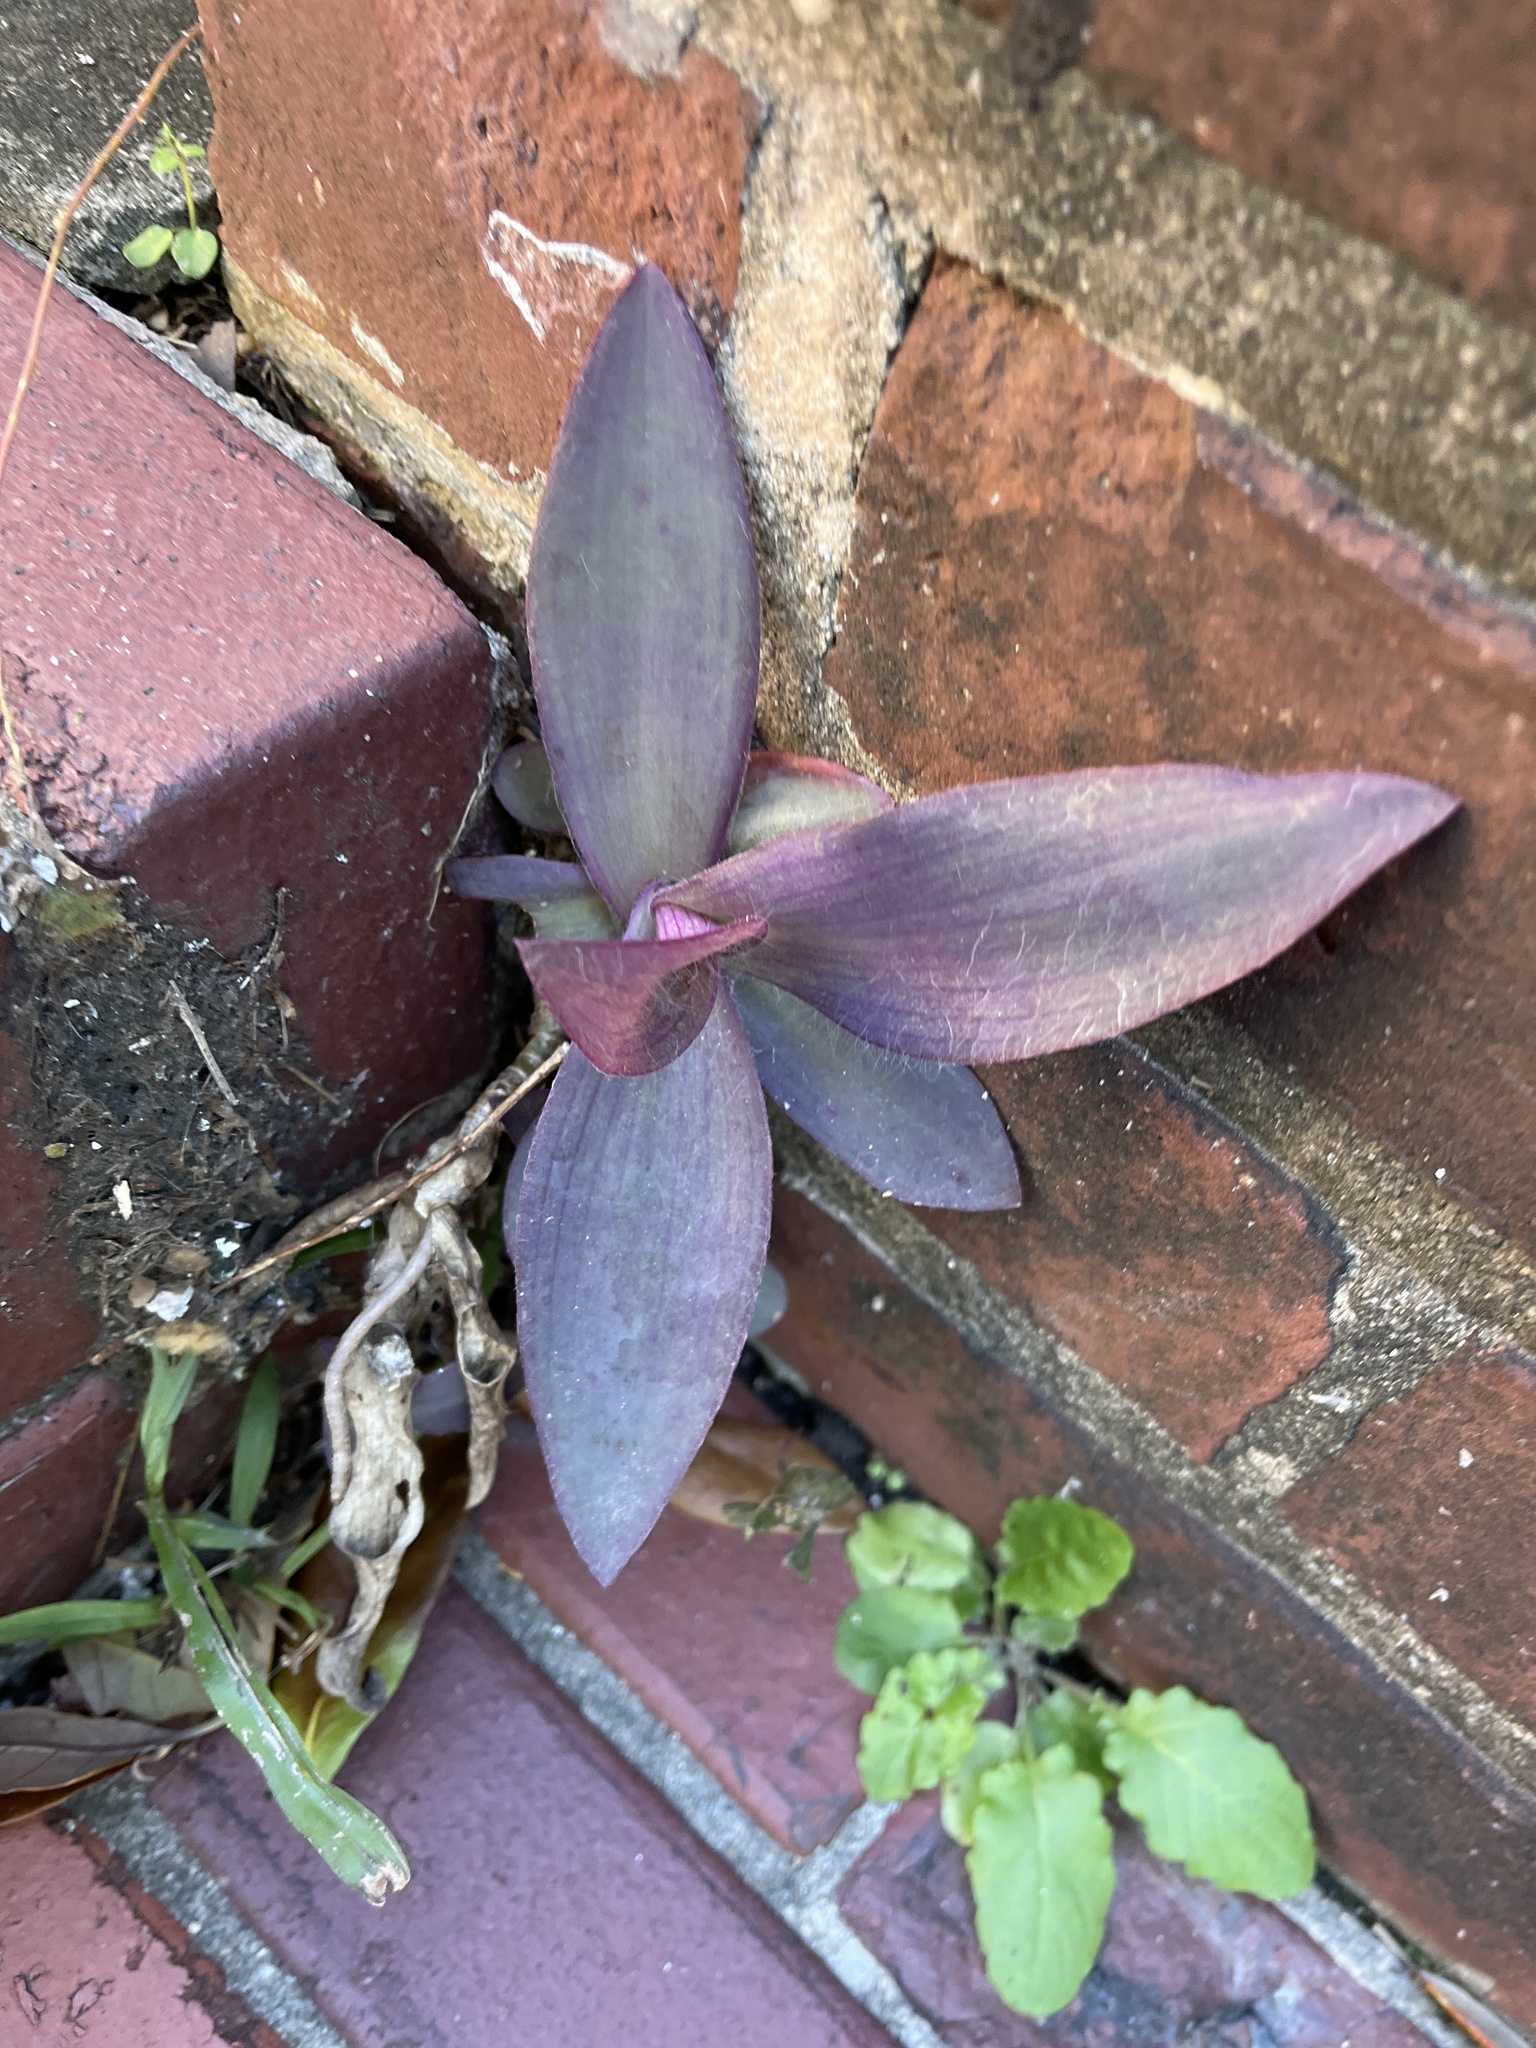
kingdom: Plantae
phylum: Tracheophyta
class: Liliopsida
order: Commelinales
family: Commelinaceae
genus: Tradescantia
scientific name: Tradescantia pallida
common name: Purpleheart
